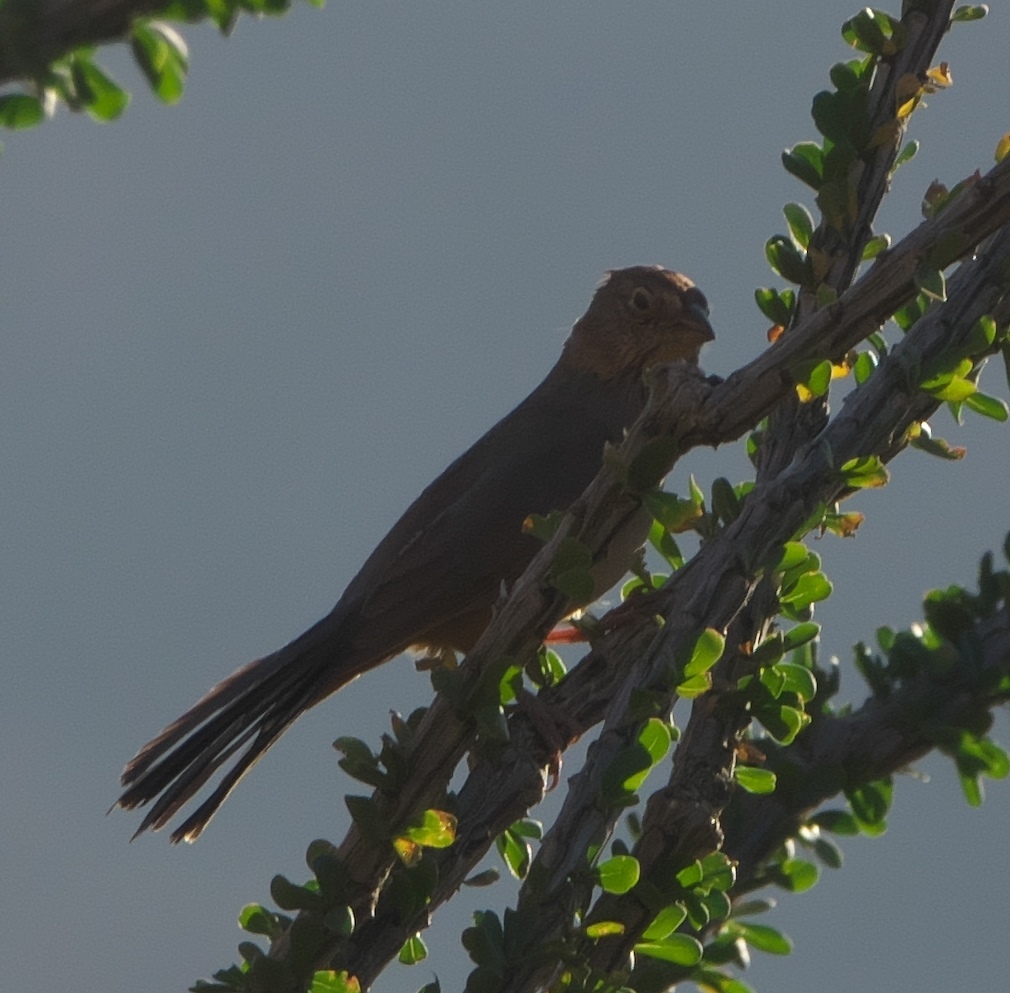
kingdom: Animalia
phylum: Chordata
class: Aves
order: Passeriformes
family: Passerellidae
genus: Melozone
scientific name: Melozone fusca
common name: Canyon towhee
